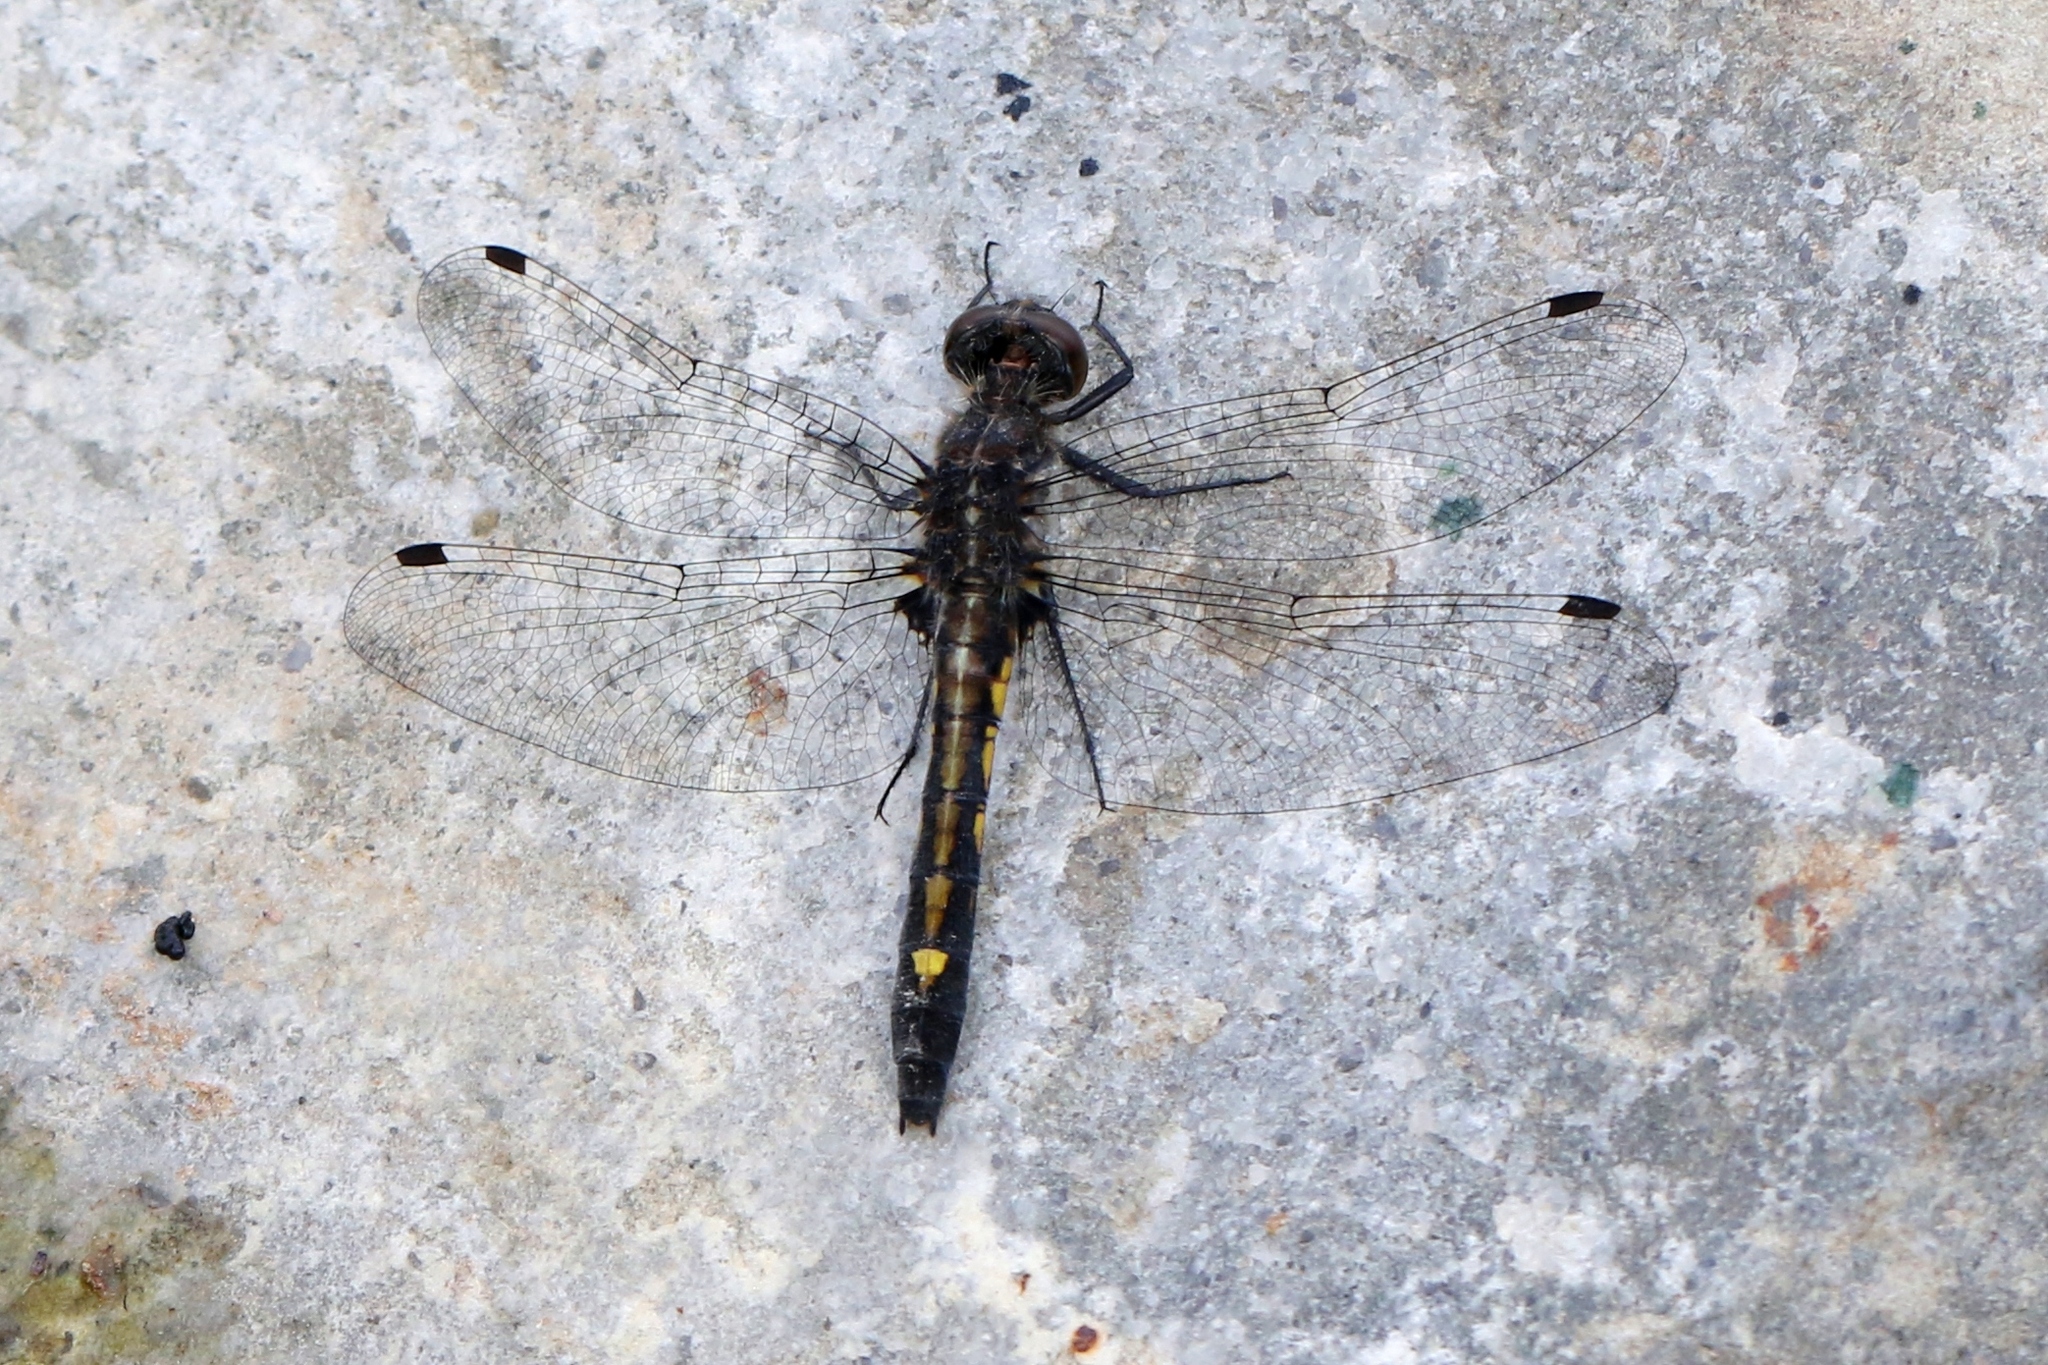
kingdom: Animalia
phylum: Arthropoda
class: Insecta
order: Odonata
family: Libellulidae
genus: Leucorrhinia
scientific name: Leucorrhinia intacta
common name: Dot-tailed whiteface
